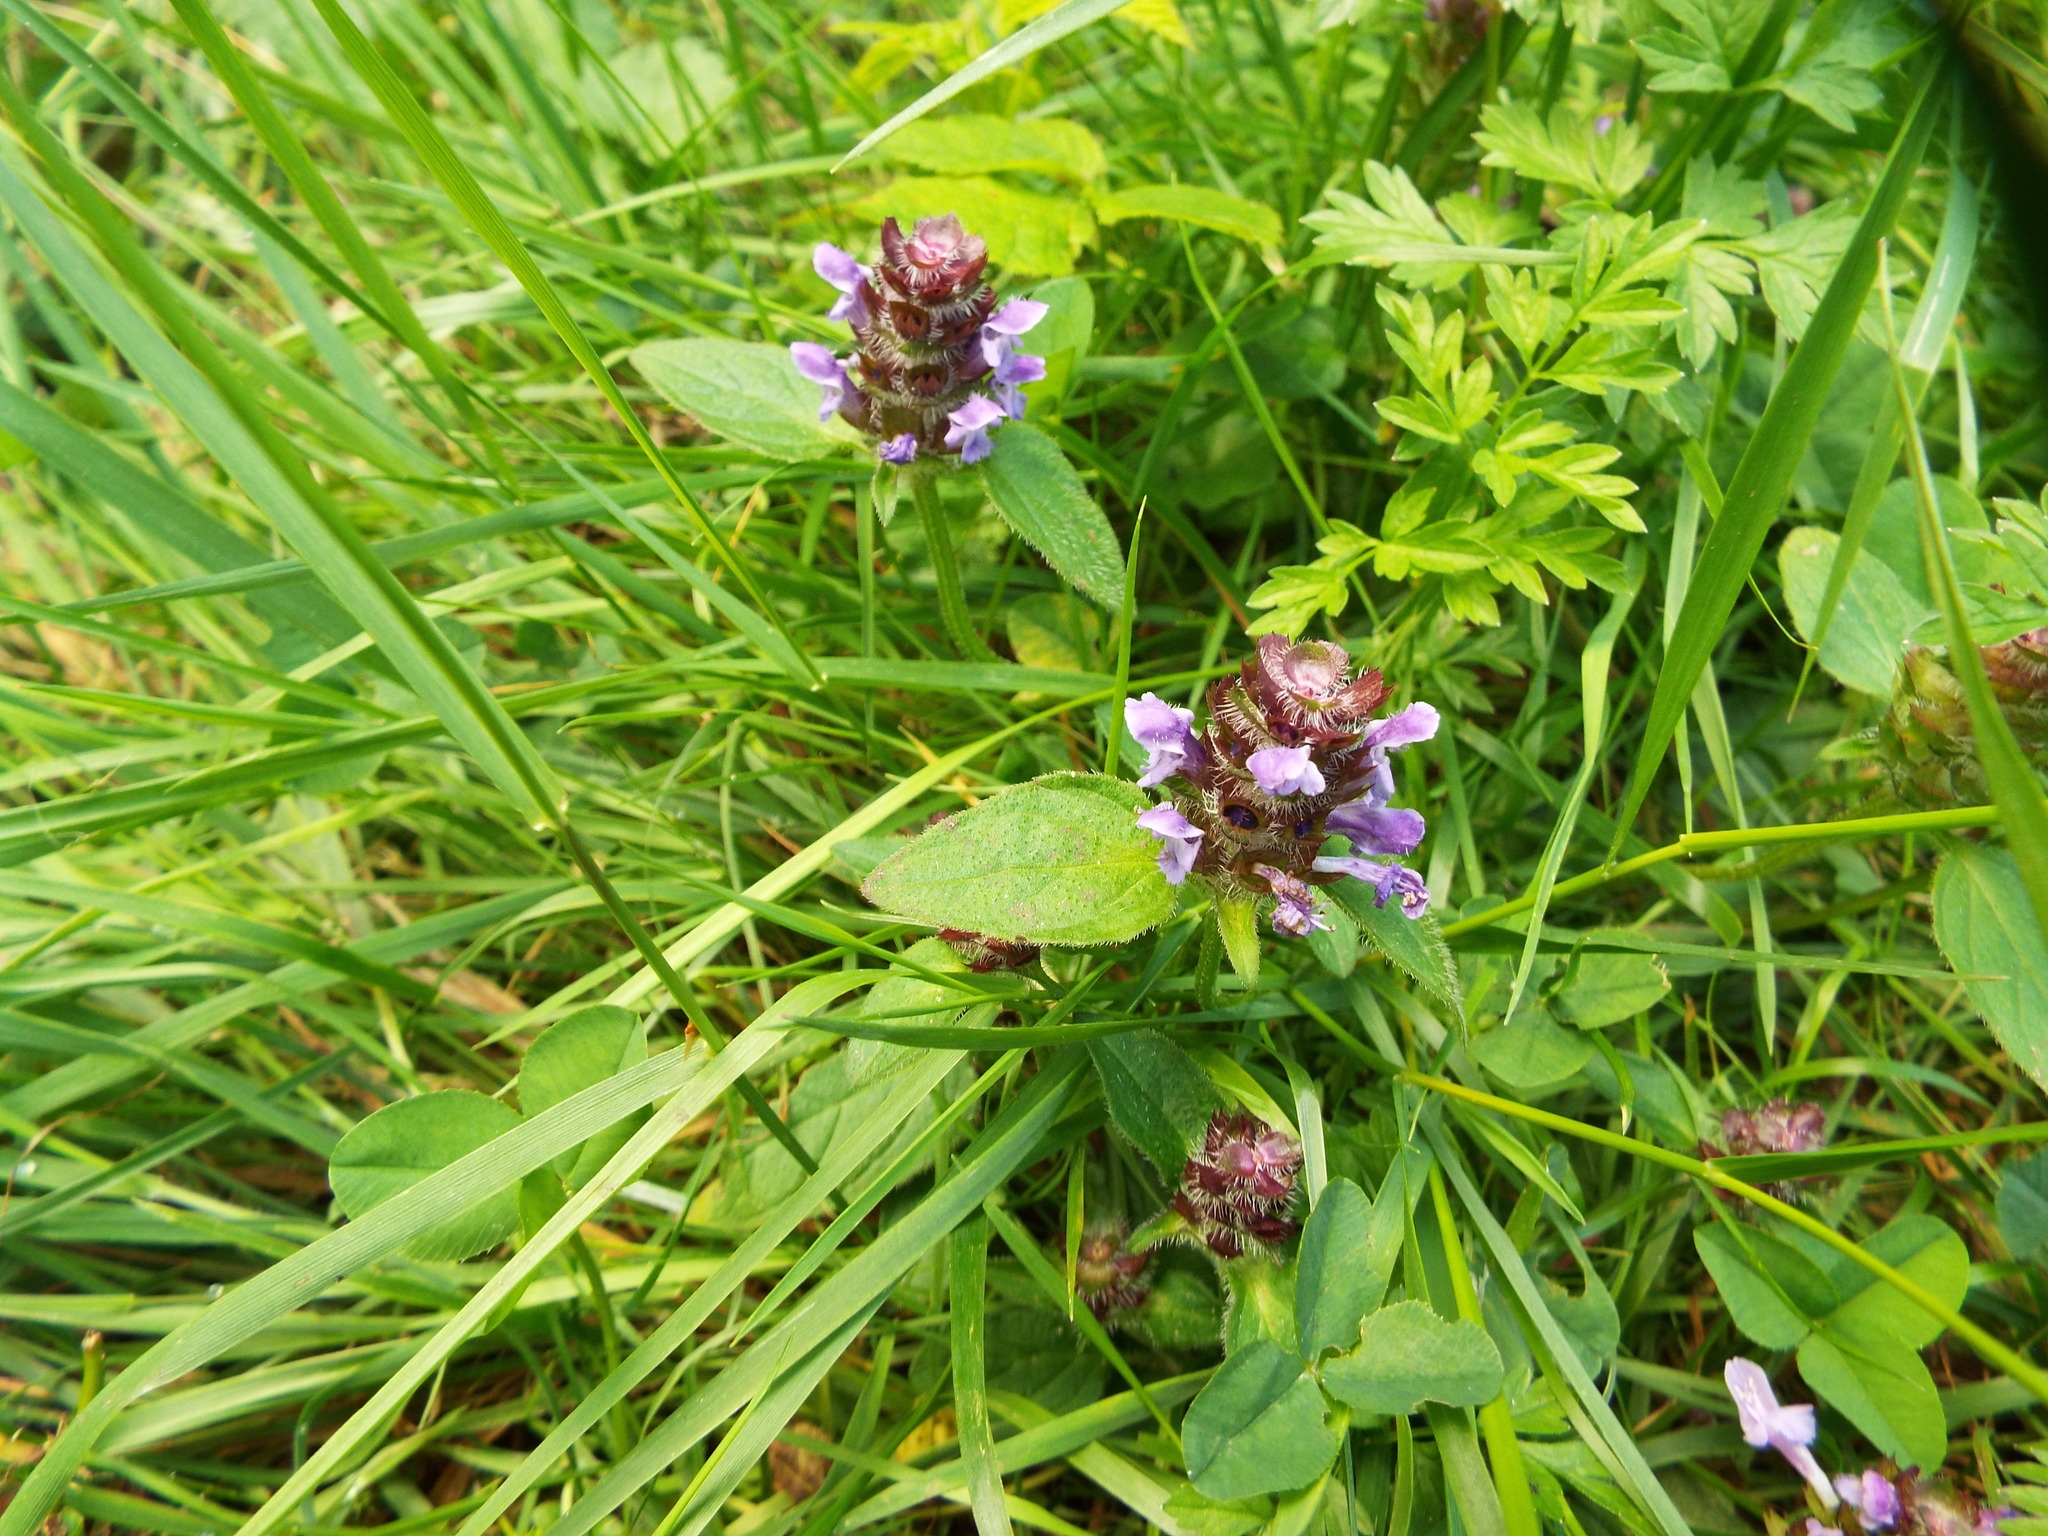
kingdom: Plantae
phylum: Tracheophyta
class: Magnoliopsida
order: Lamiales
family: Lamiaceae
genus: Prunella
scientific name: Prunella vulgaris
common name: Heal-all
